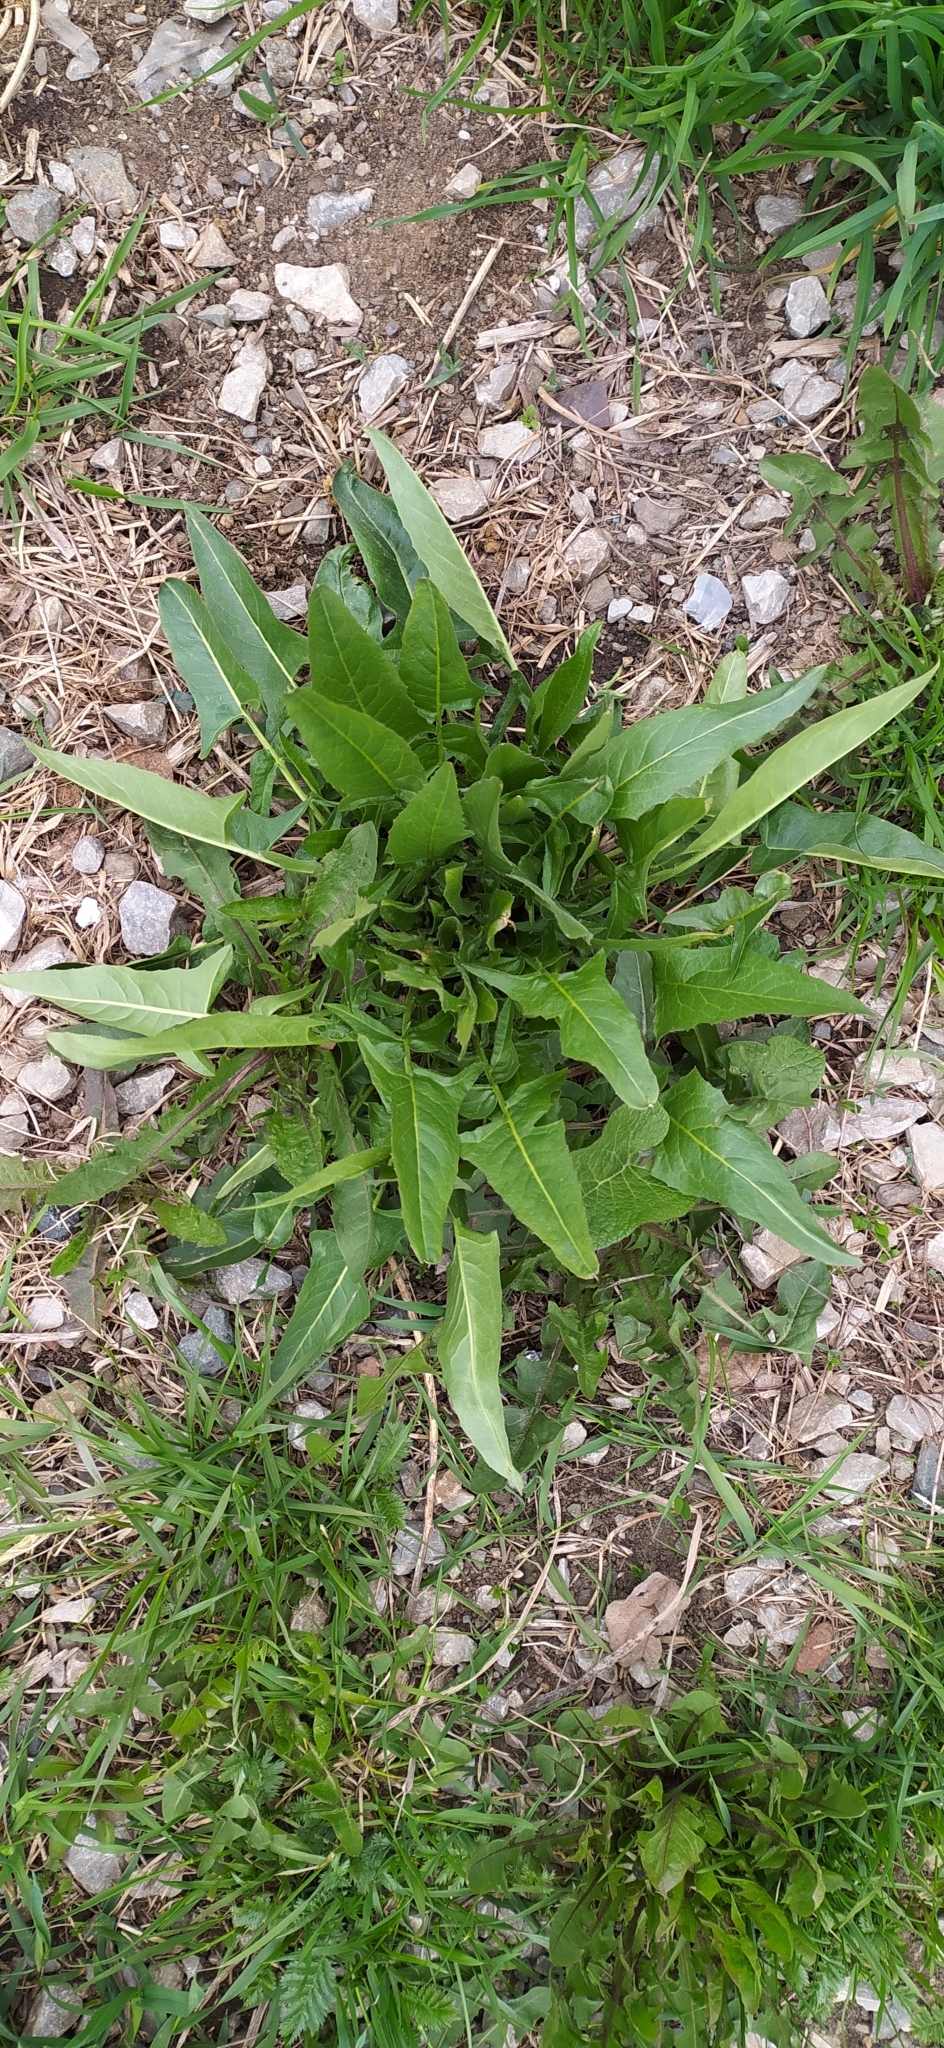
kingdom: Plantae
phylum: Tracheophyta
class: Magnoliopsida
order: Brassicales
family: Brassicaceae
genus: Bunias
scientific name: Bunias orientalis
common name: Warty-cabbage
